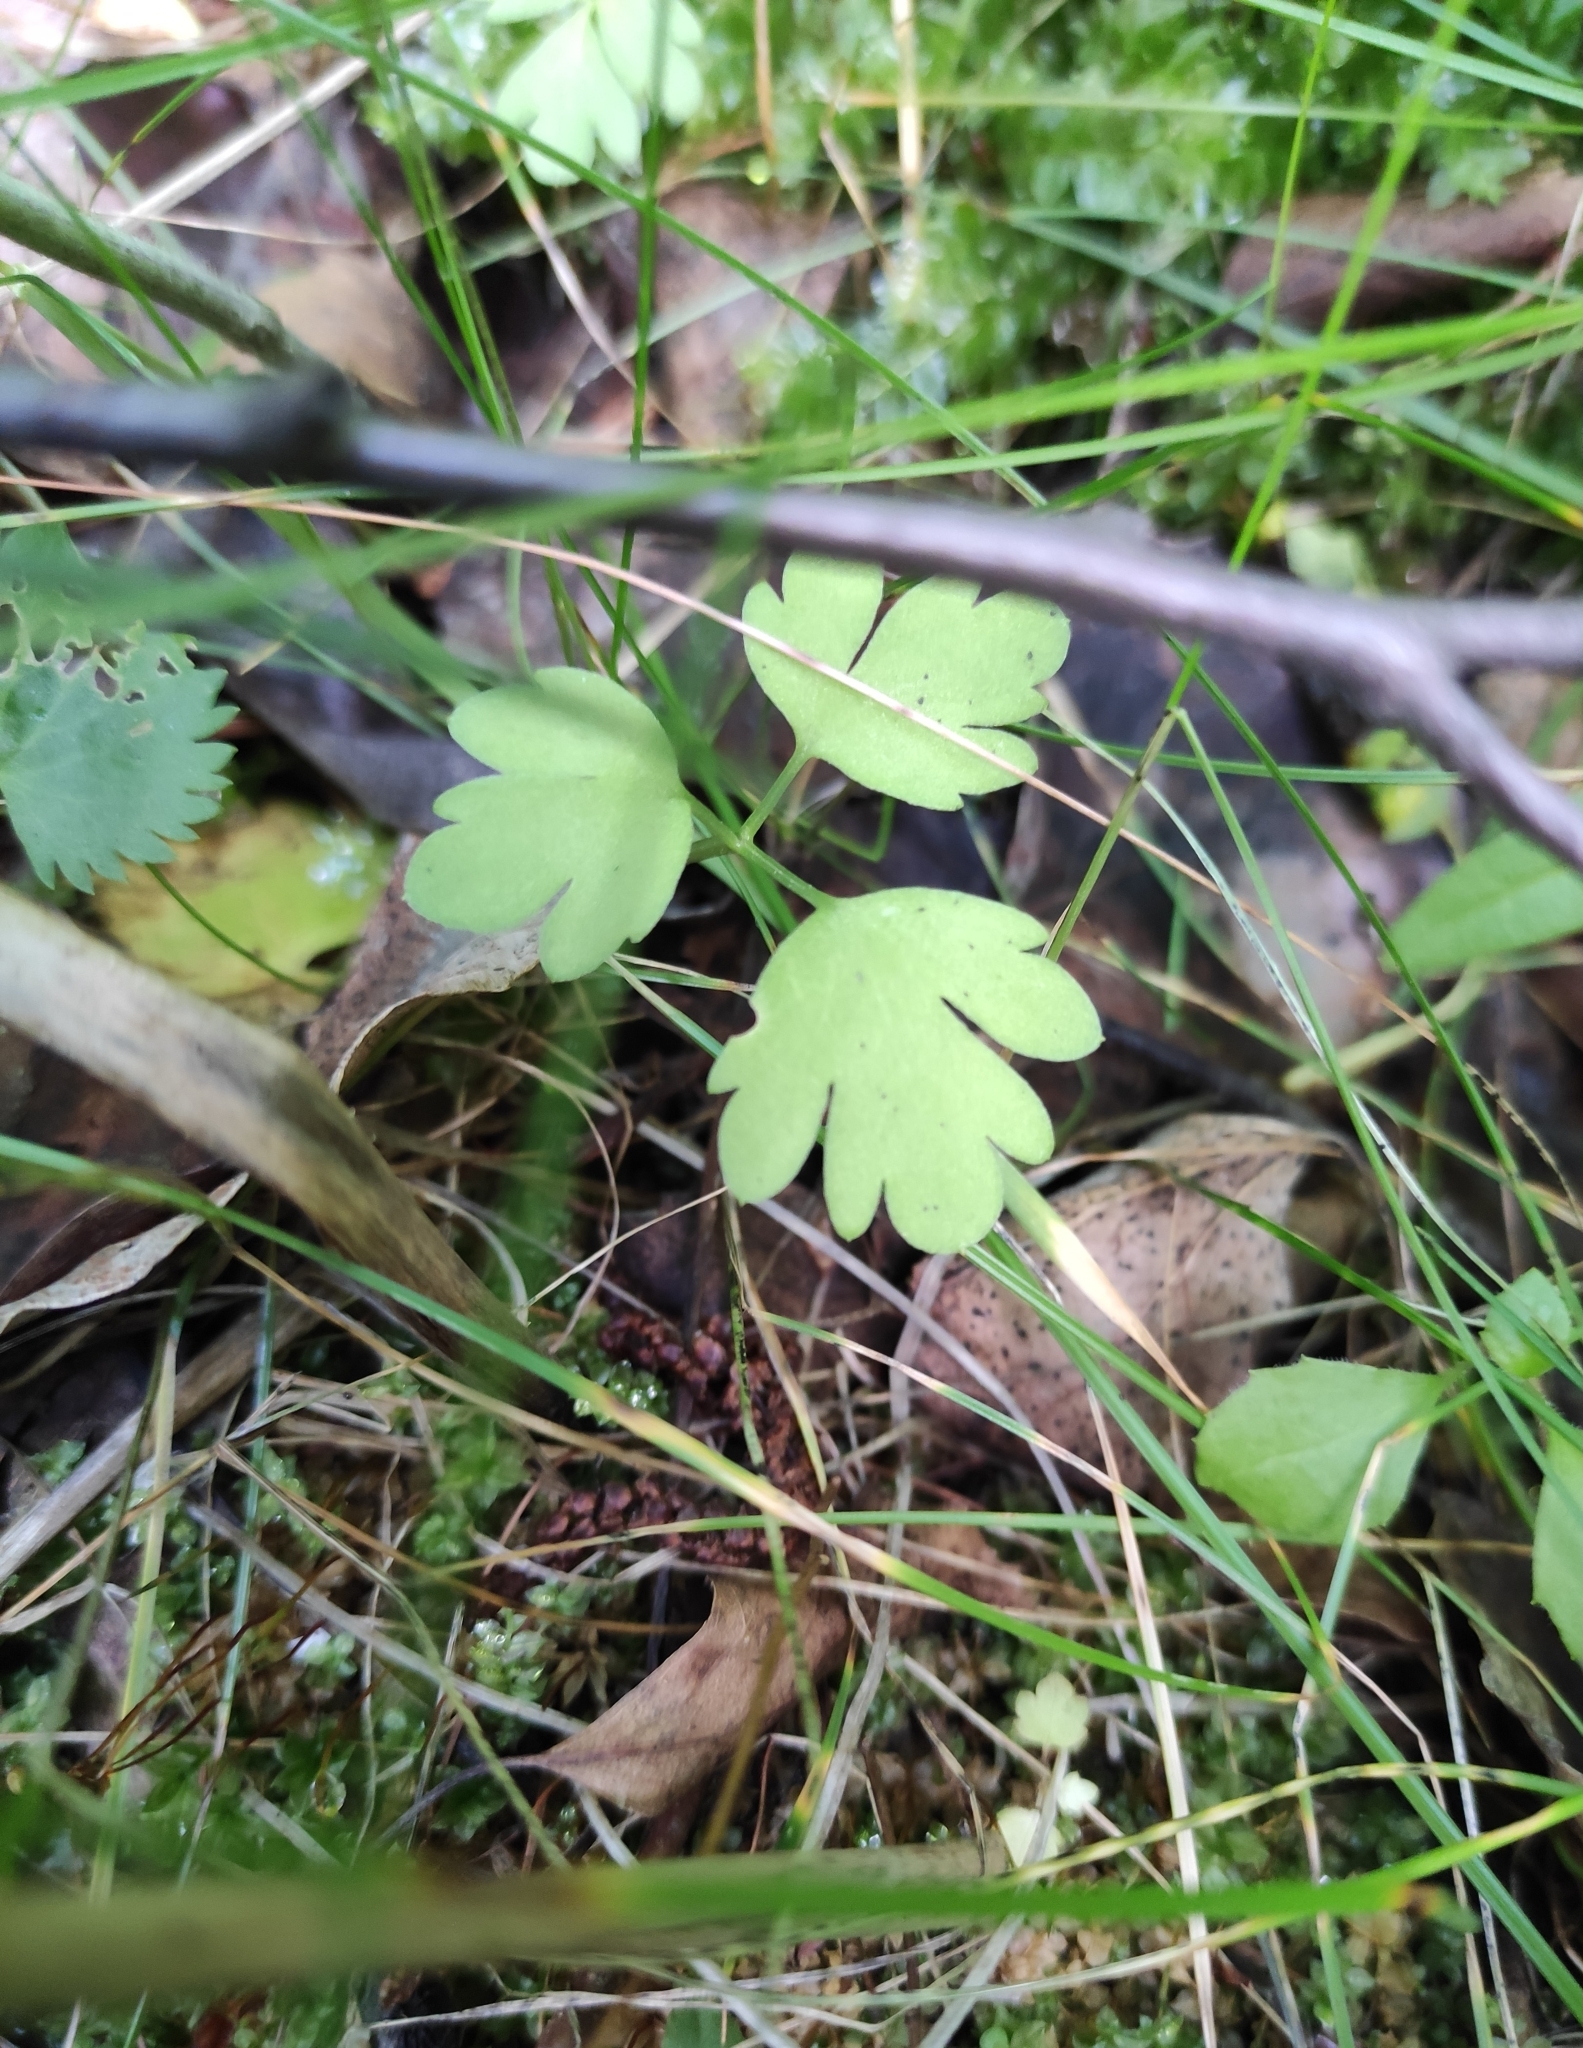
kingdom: Plantae
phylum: Tracheophyta
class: Magnoliopsida
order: Dipsacales
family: Viburnaceae
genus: Adoxa
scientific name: Adoxa moschatellina
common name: Moschatel
